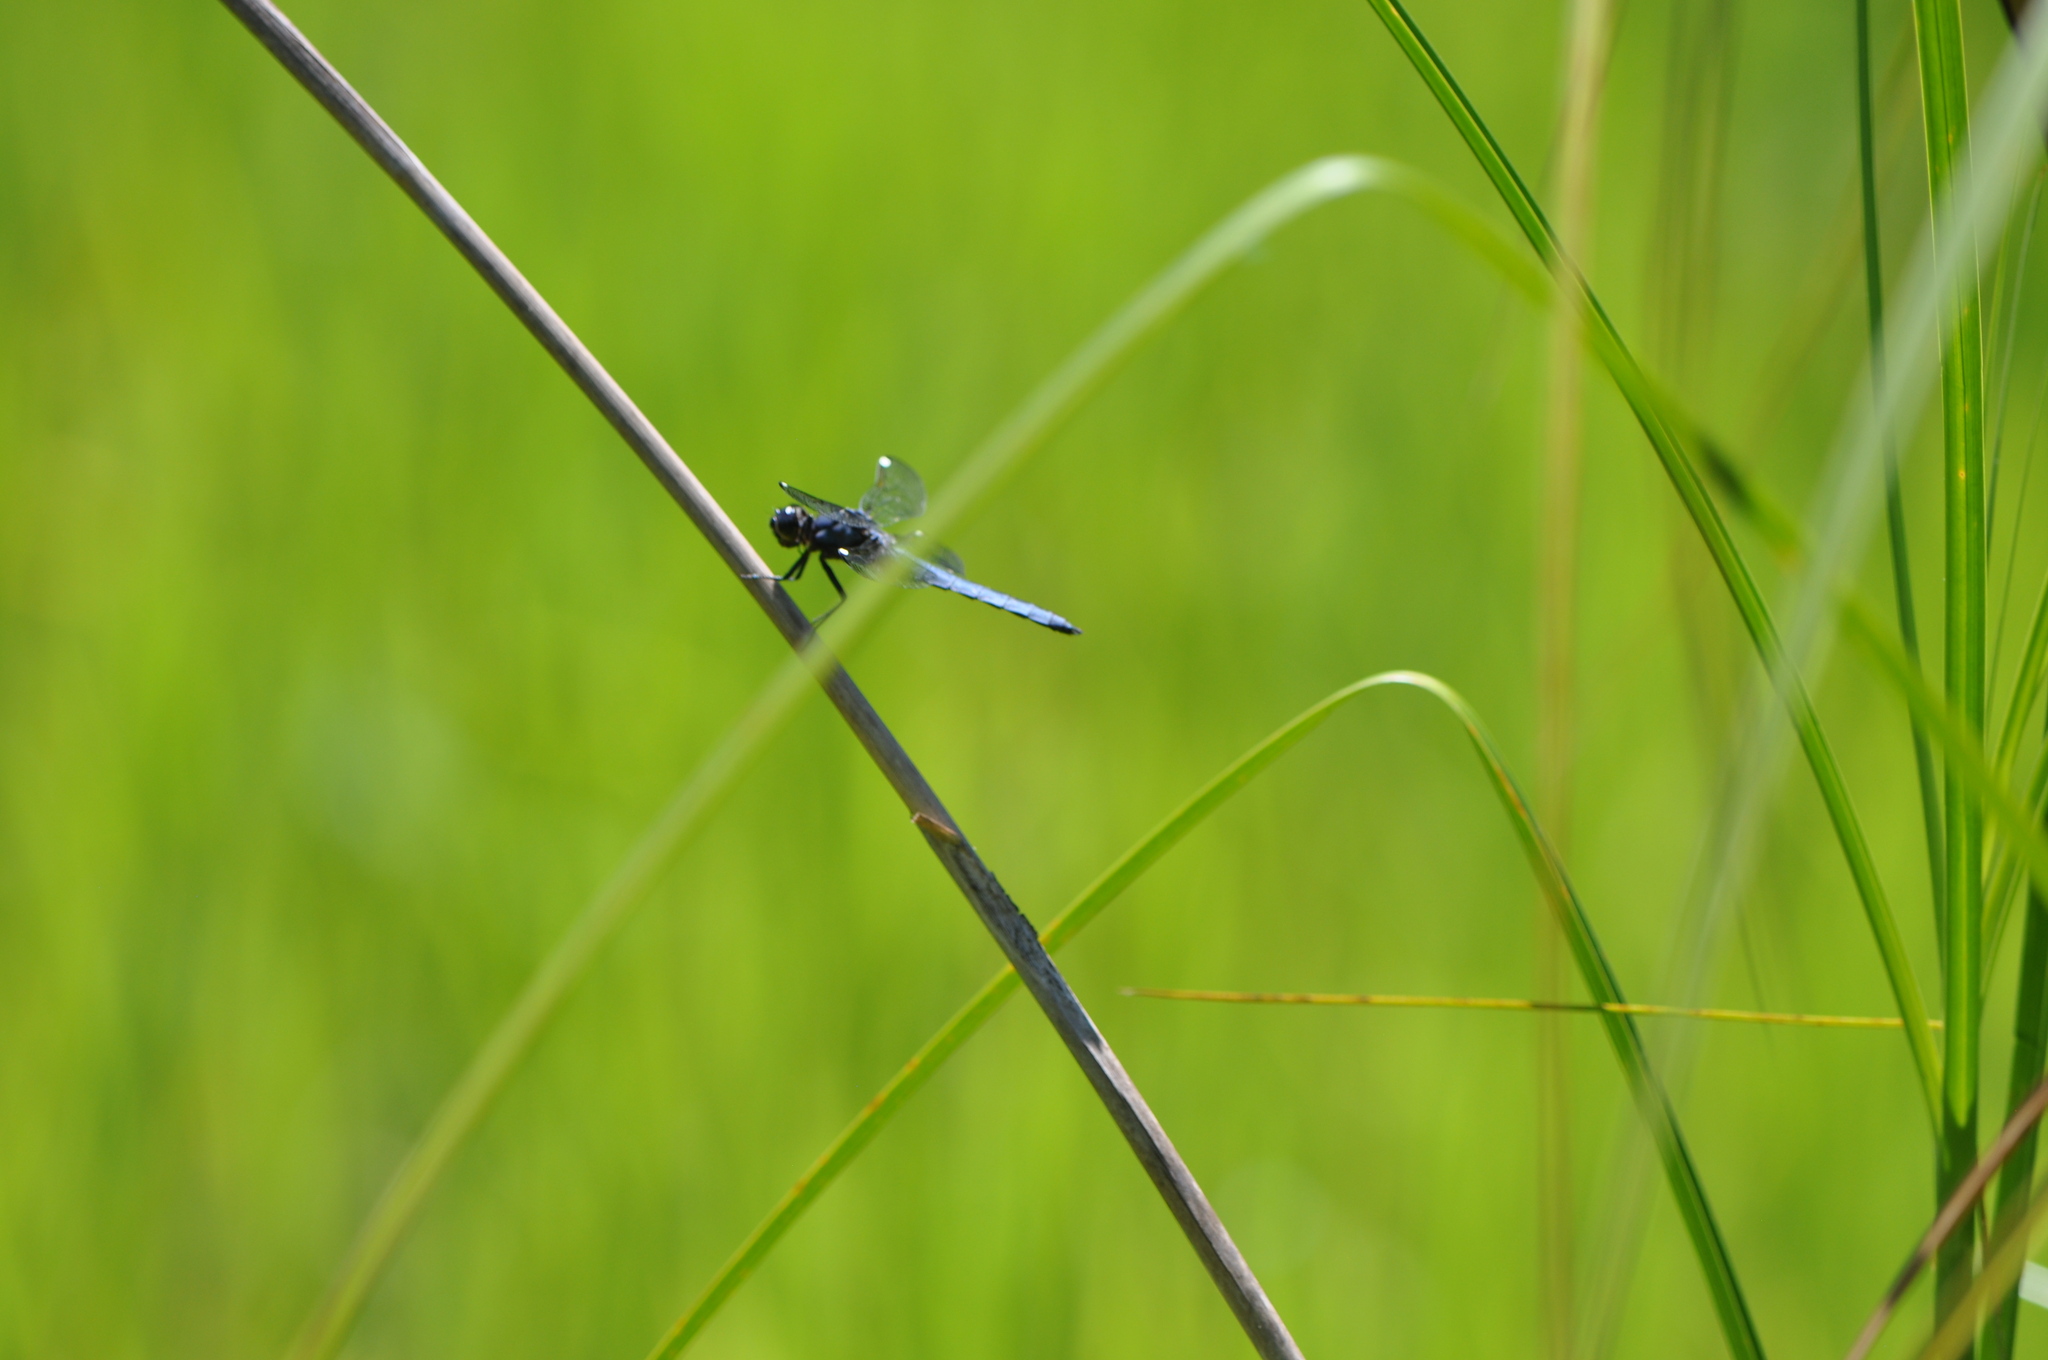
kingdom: Animalia
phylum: Arthropoda
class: Insecta
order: Odonata
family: Libellulidae
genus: Libellula
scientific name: Libellula cyanea
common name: Spangled skimmer
